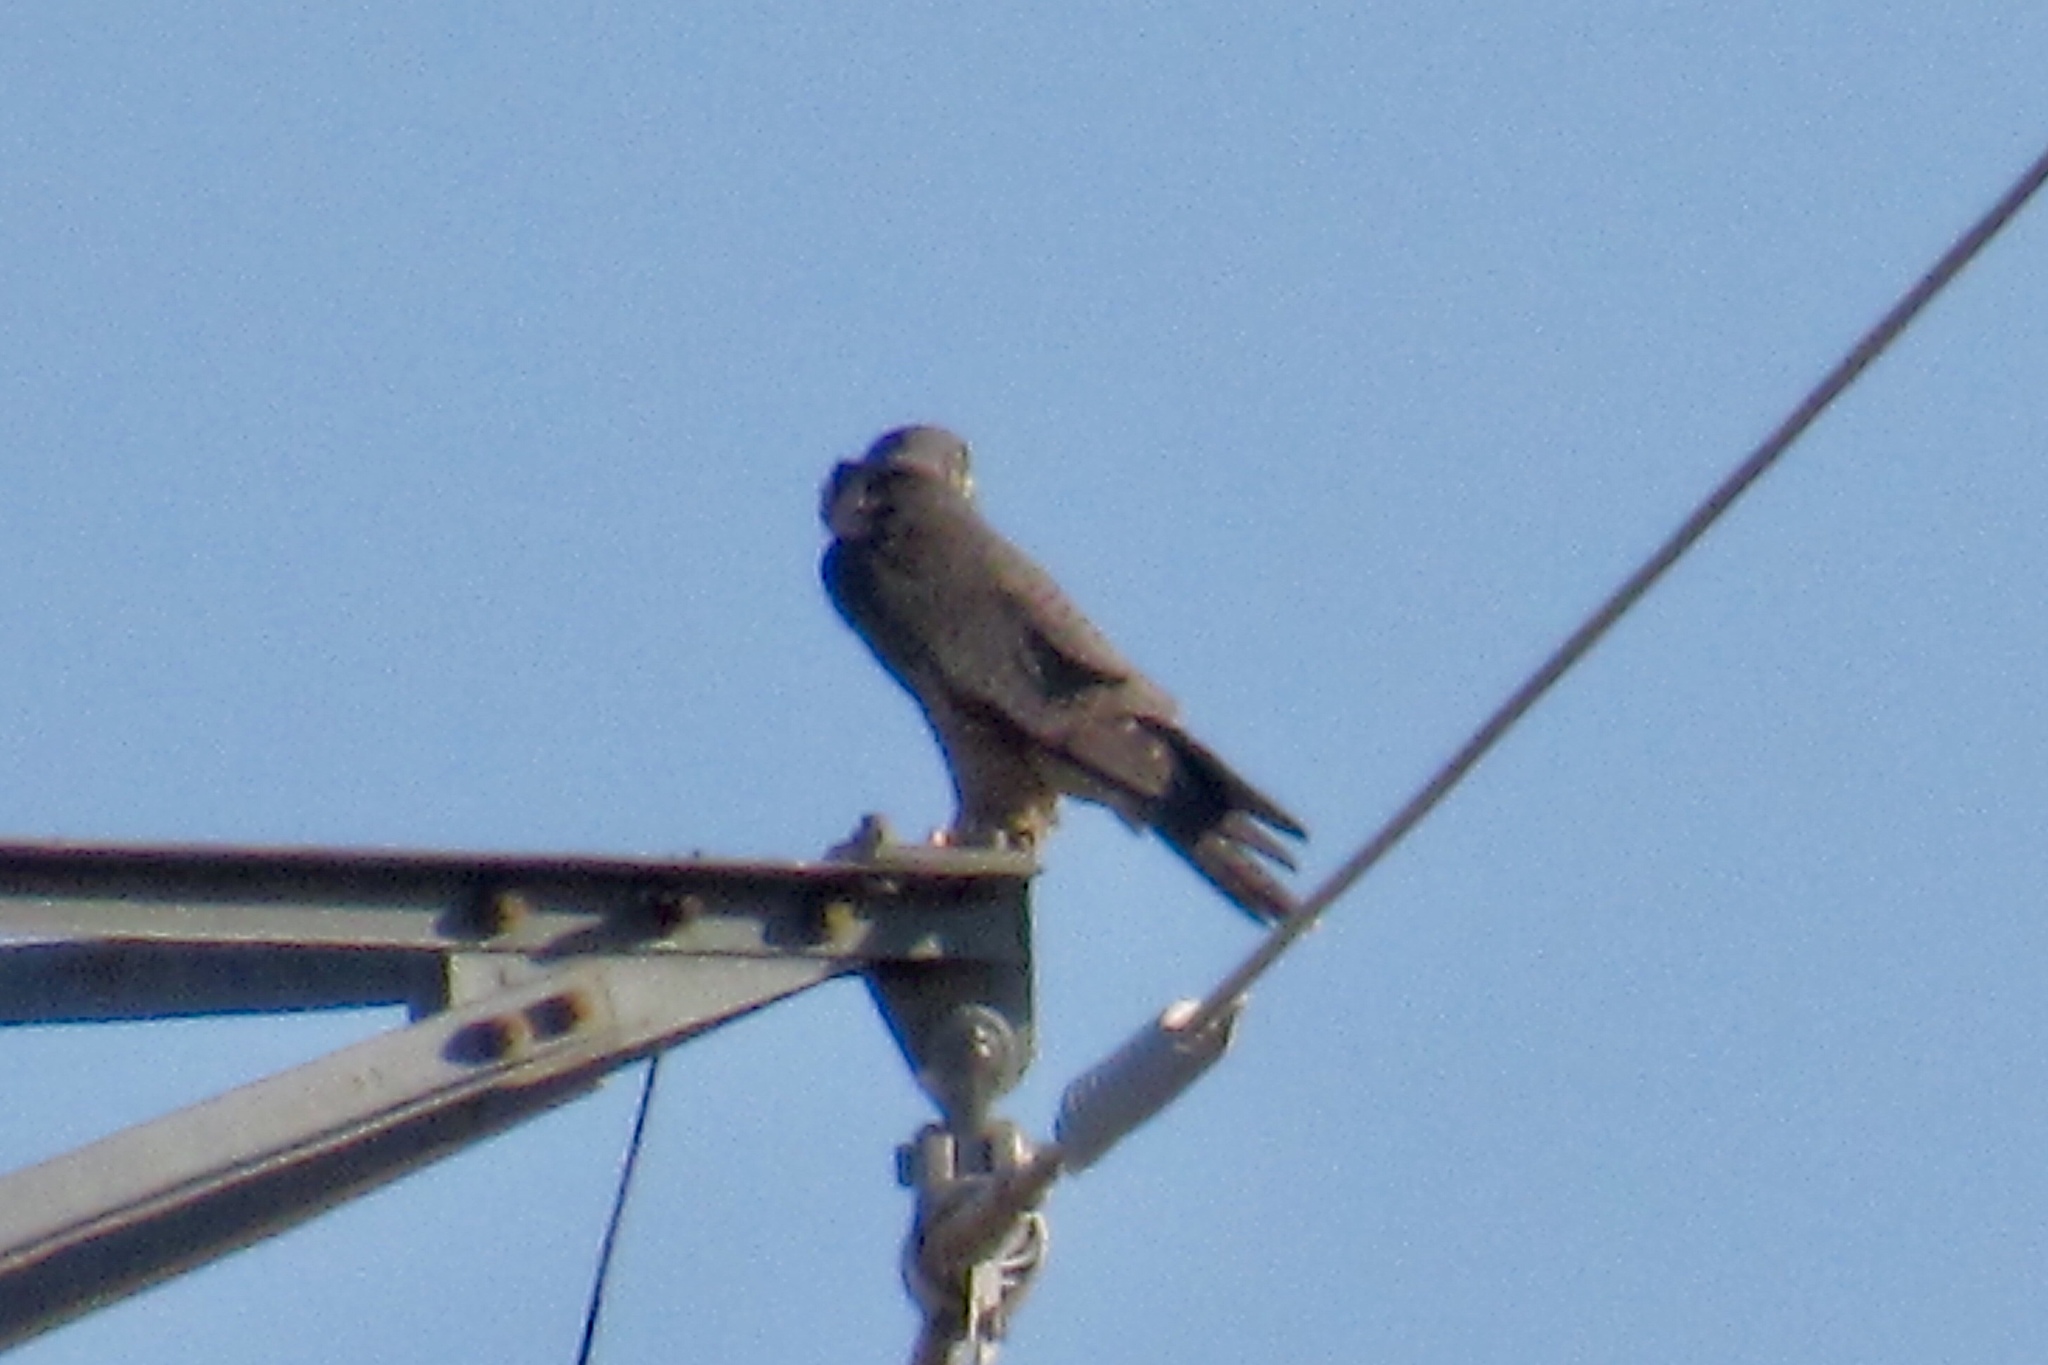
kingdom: Animalia
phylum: Chordata
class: Aves
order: Falconiformes
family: Falconidae
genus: Falco
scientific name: Falco peregrinus
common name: Peregrine falcon
